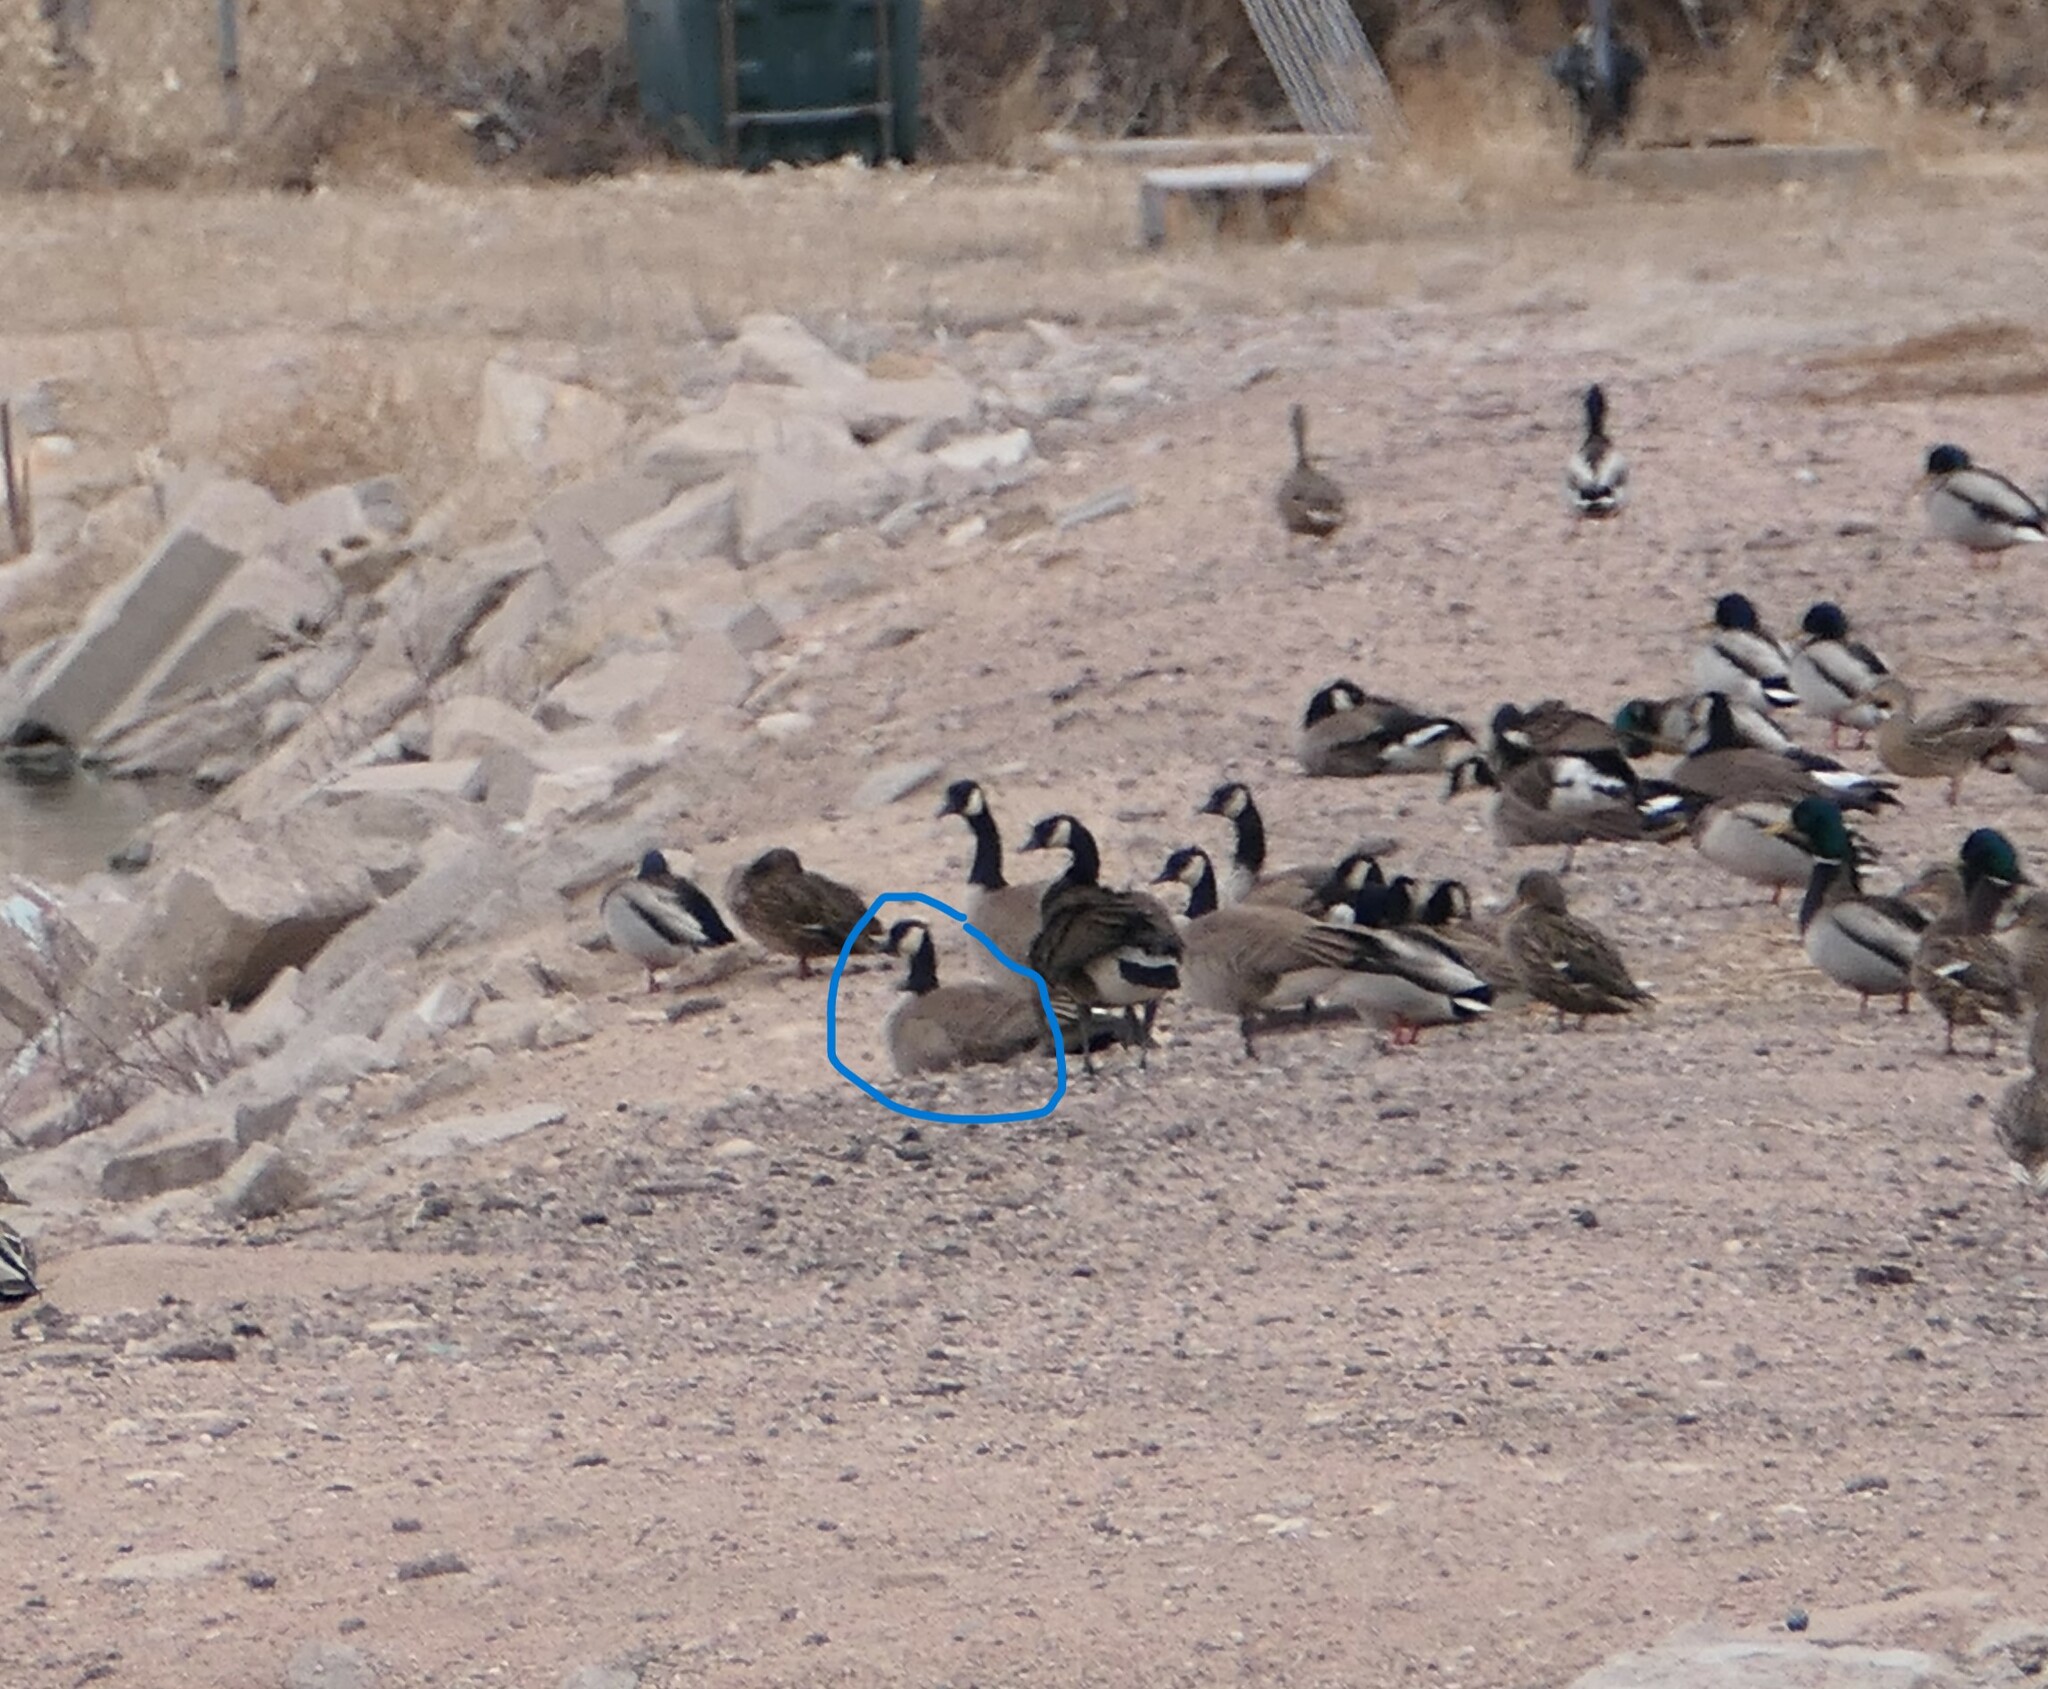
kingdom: Animalia
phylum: Chordata
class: Aves
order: Anseriformes
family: Anatidae
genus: Branta
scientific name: Branta hutchinsii
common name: Cackling goose
